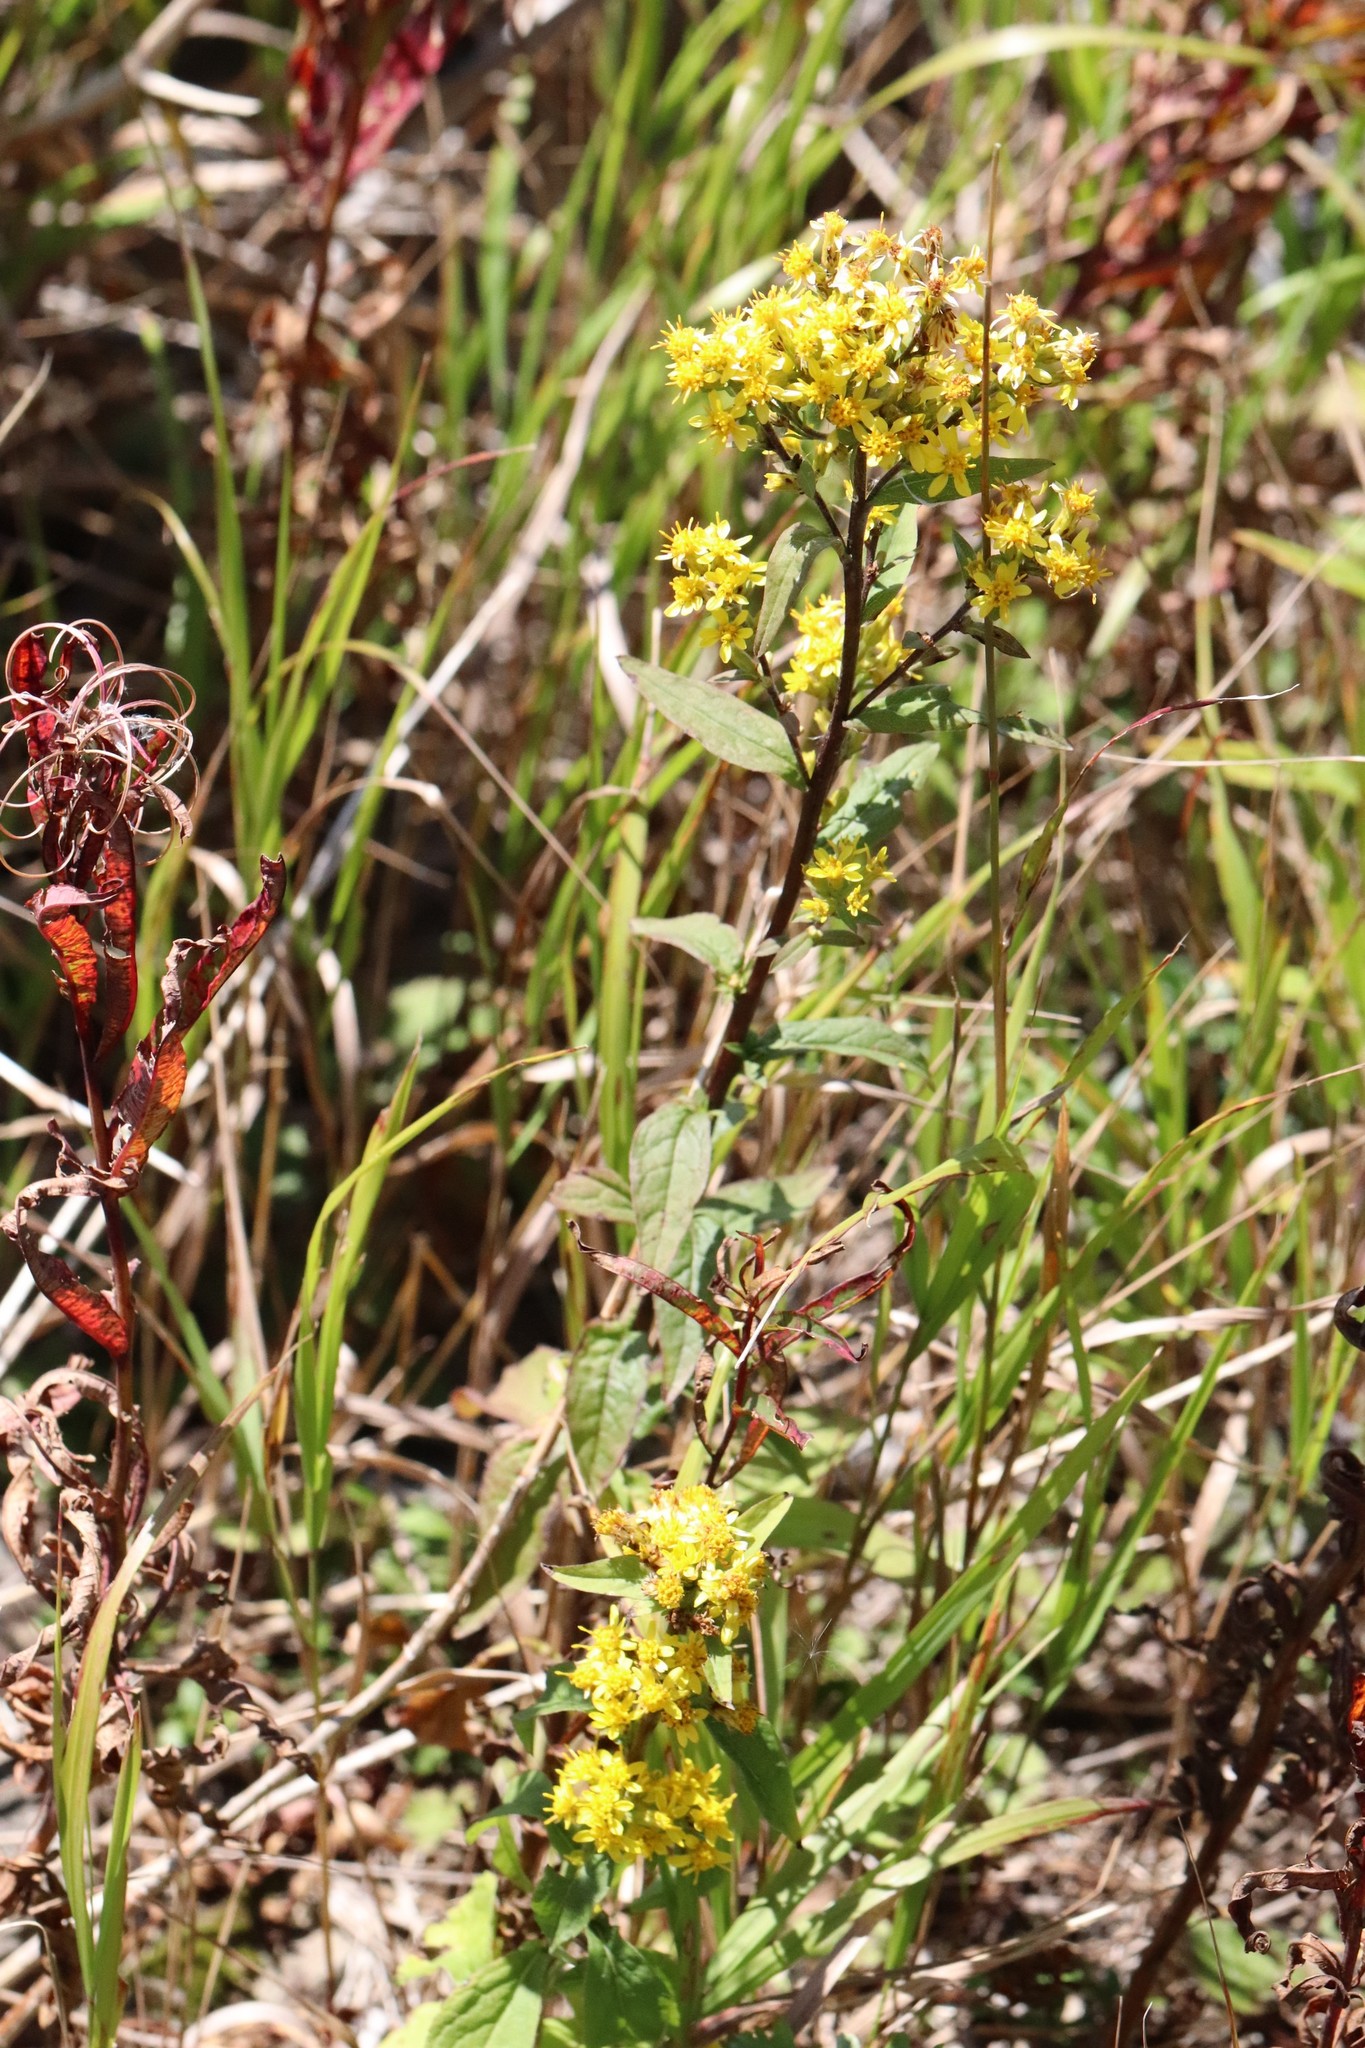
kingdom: Plantae
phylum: Tracheophyta
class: Magnoliopsida
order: Asterales
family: Asteraceae
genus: Solidago
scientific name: Solidago decurrens
